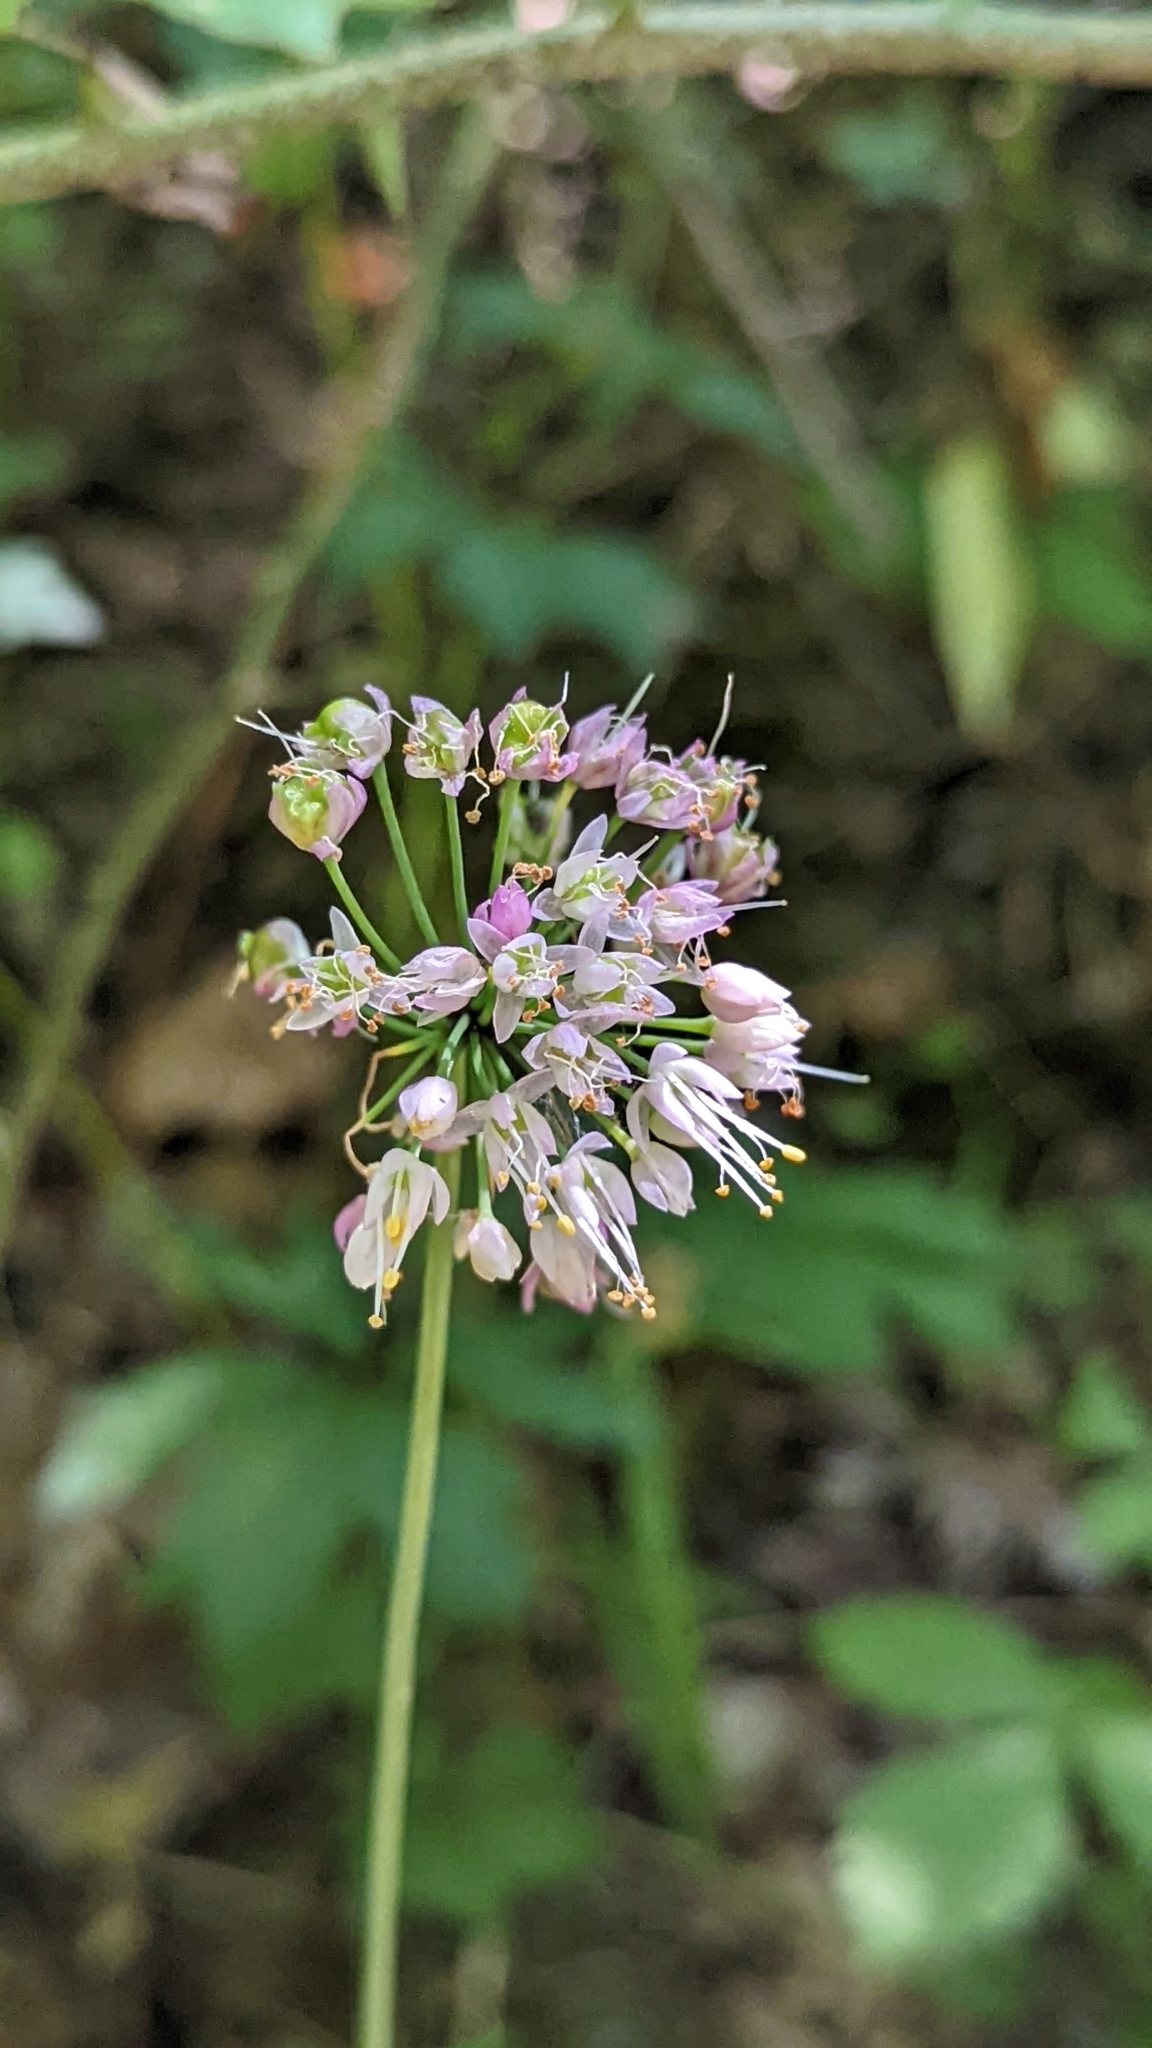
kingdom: Plantae
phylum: Tracheophyta
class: Liliopsida
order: Asparagales
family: Amaryllidaceae
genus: Allium
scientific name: Allium cernuum
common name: Nodding onion
